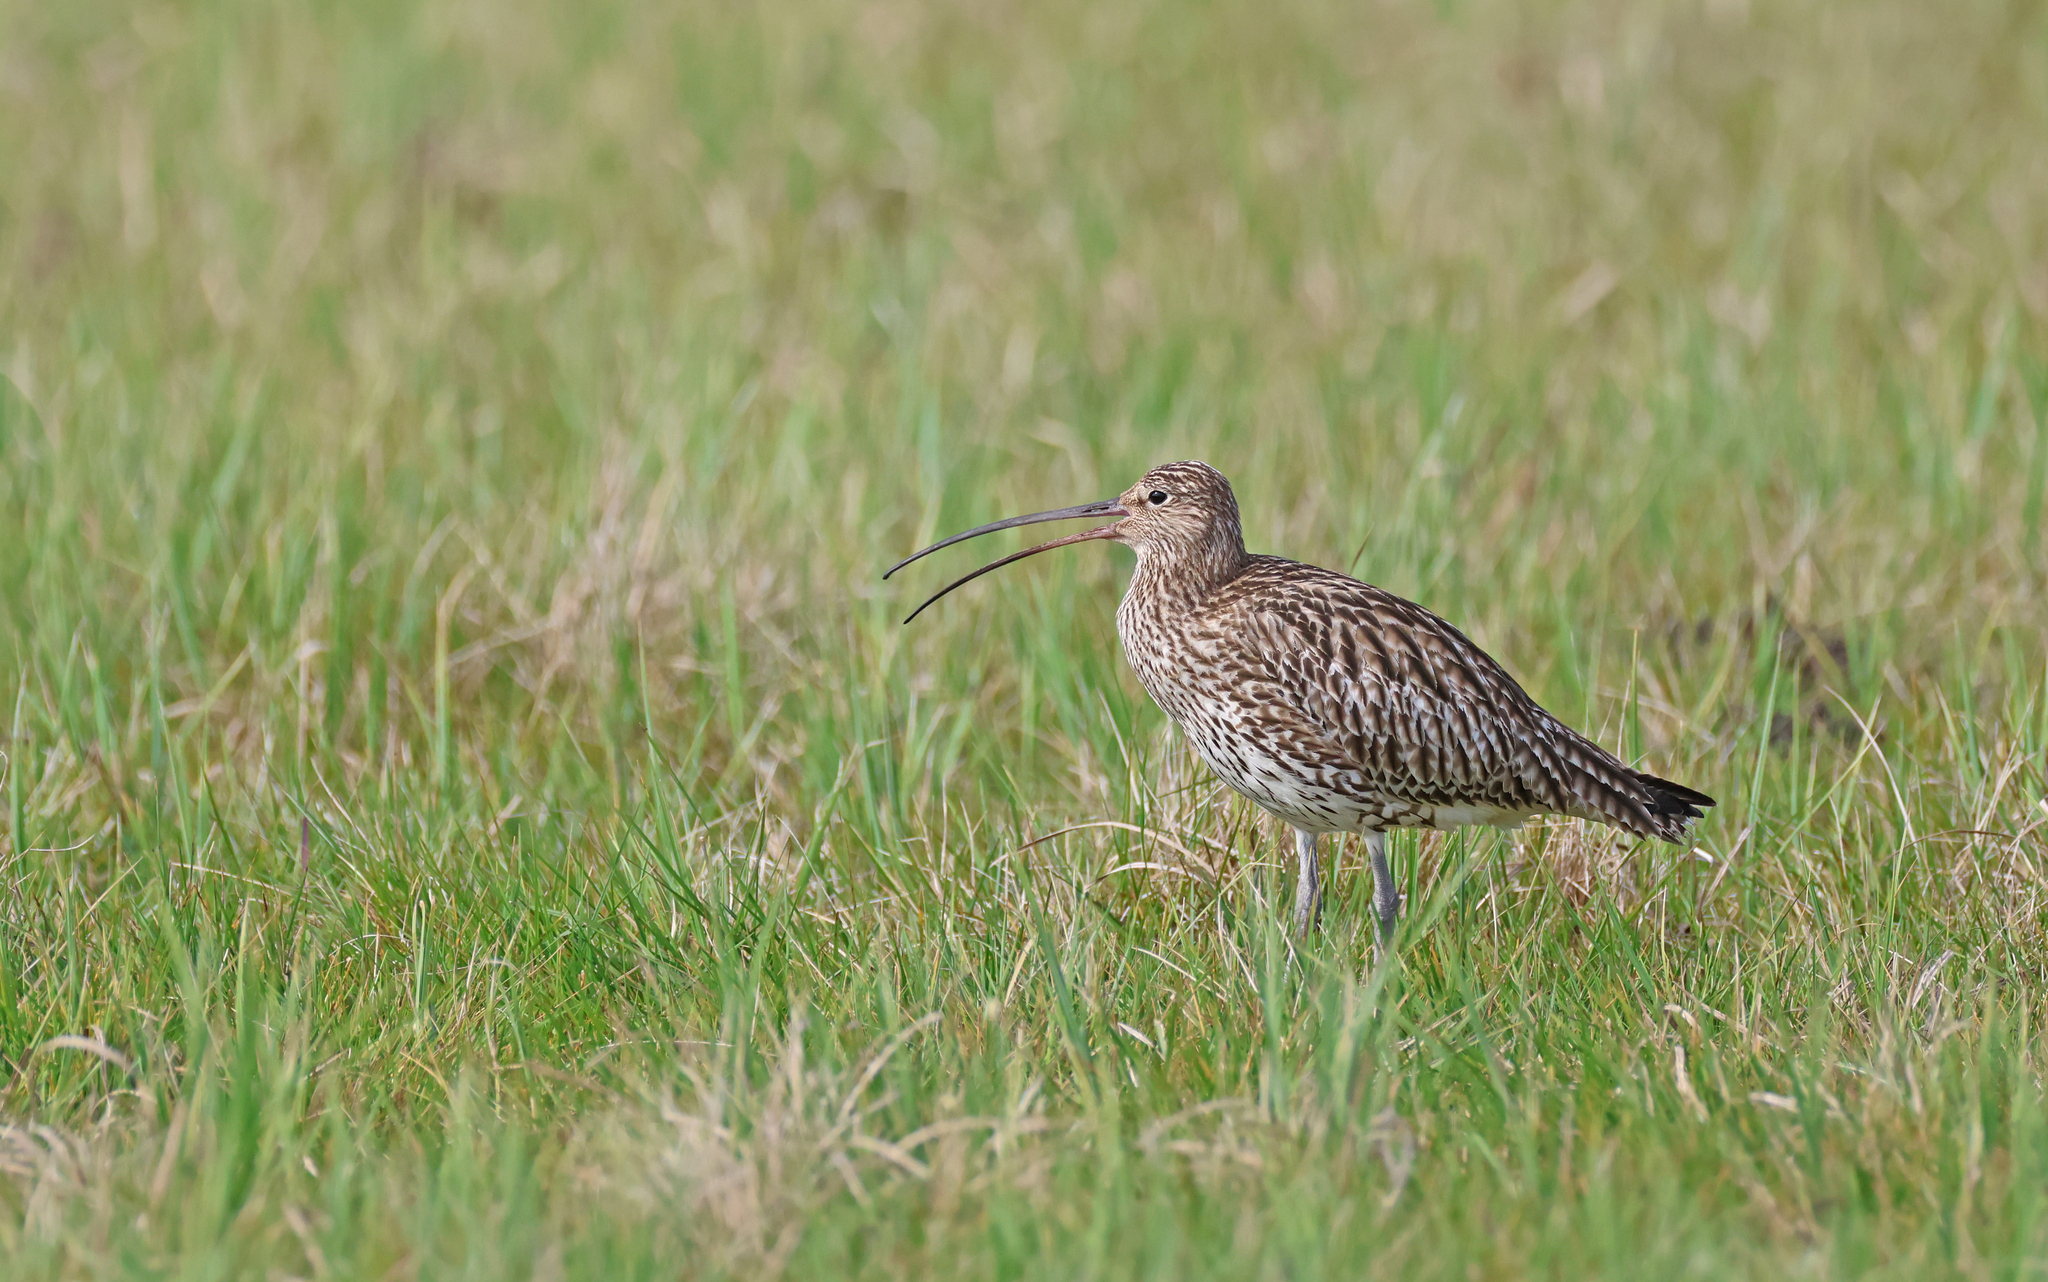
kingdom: Animalia
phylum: Chordata
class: Aves
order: Charadriiformes
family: Scolopacidae
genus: Numenius
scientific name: Numenius arquata
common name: Eurasian curlew
